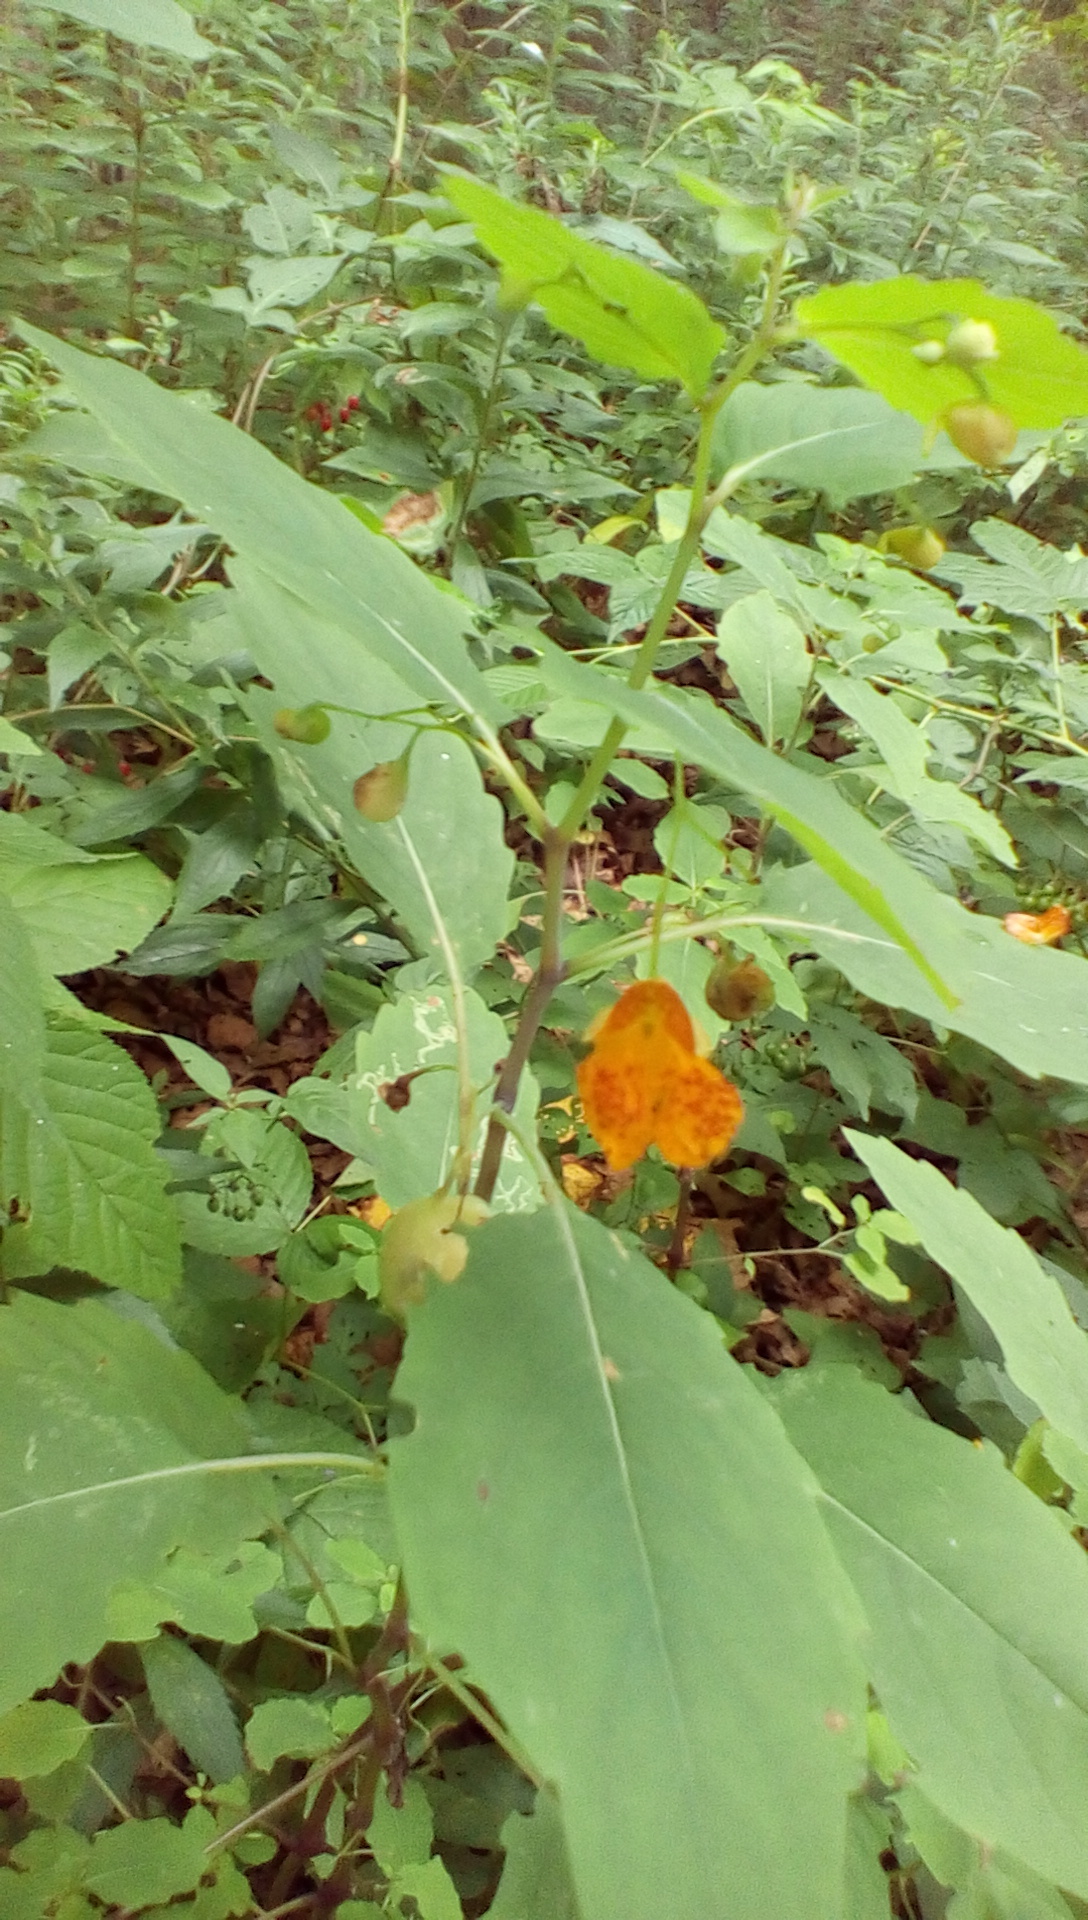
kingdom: Plantae
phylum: Tracheophyta
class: Magnoliopsida
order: Ericales
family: Balsaminaceae
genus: Impatiens
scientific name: Impatiens capensis
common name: Orange balsam
